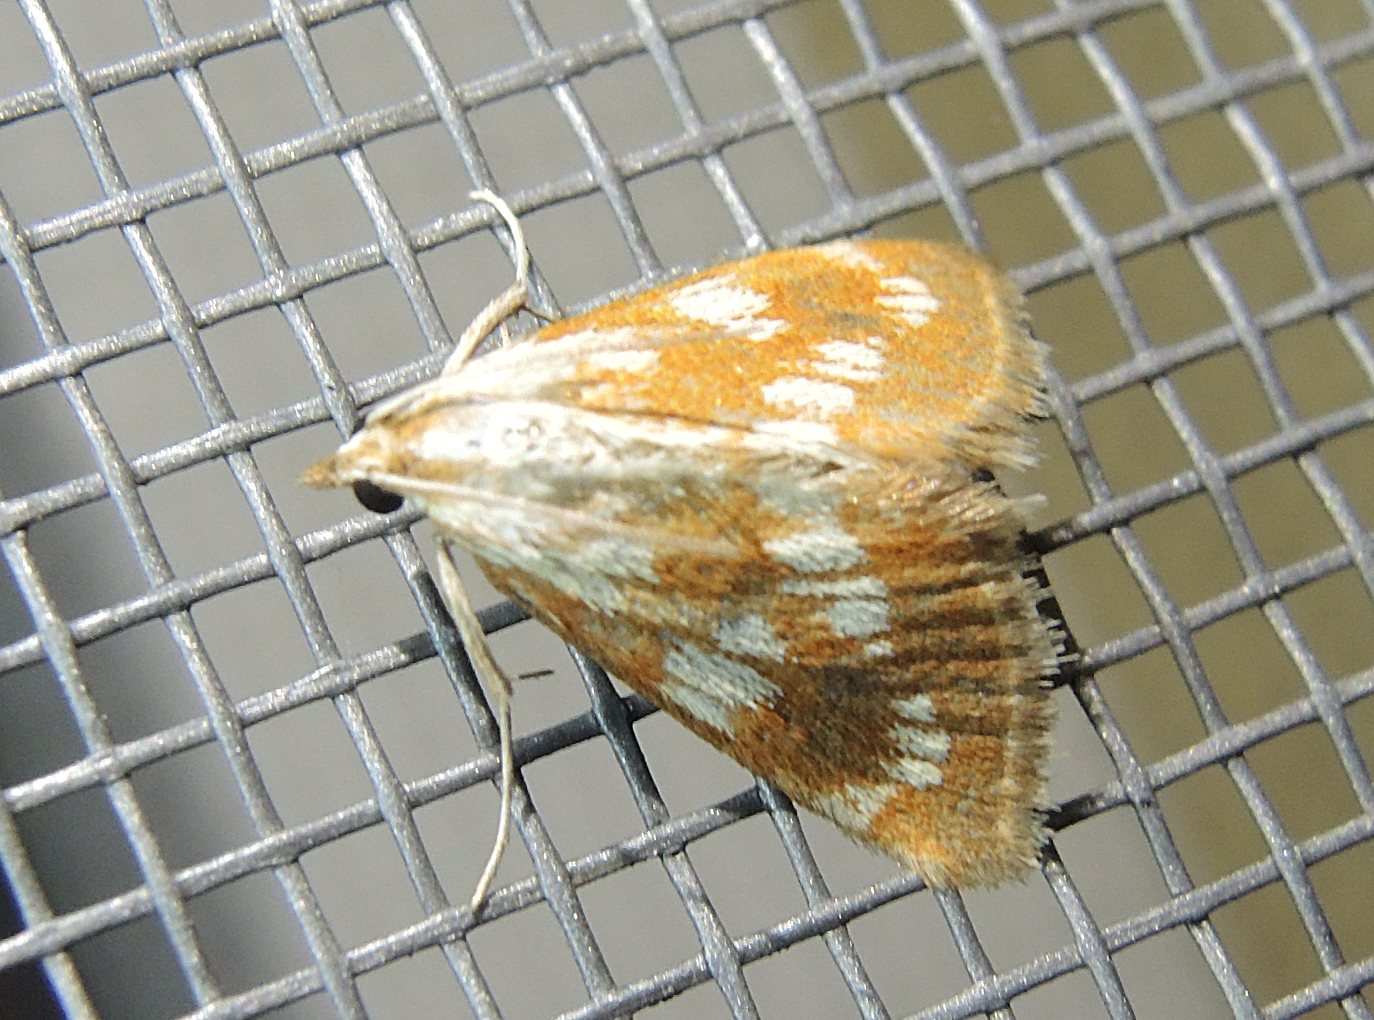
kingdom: Animalia
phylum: Arthropoda
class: Insecta
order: Lepidoptera
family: Crambidae
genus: Epascestria
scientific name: Epascestria pustulalis
